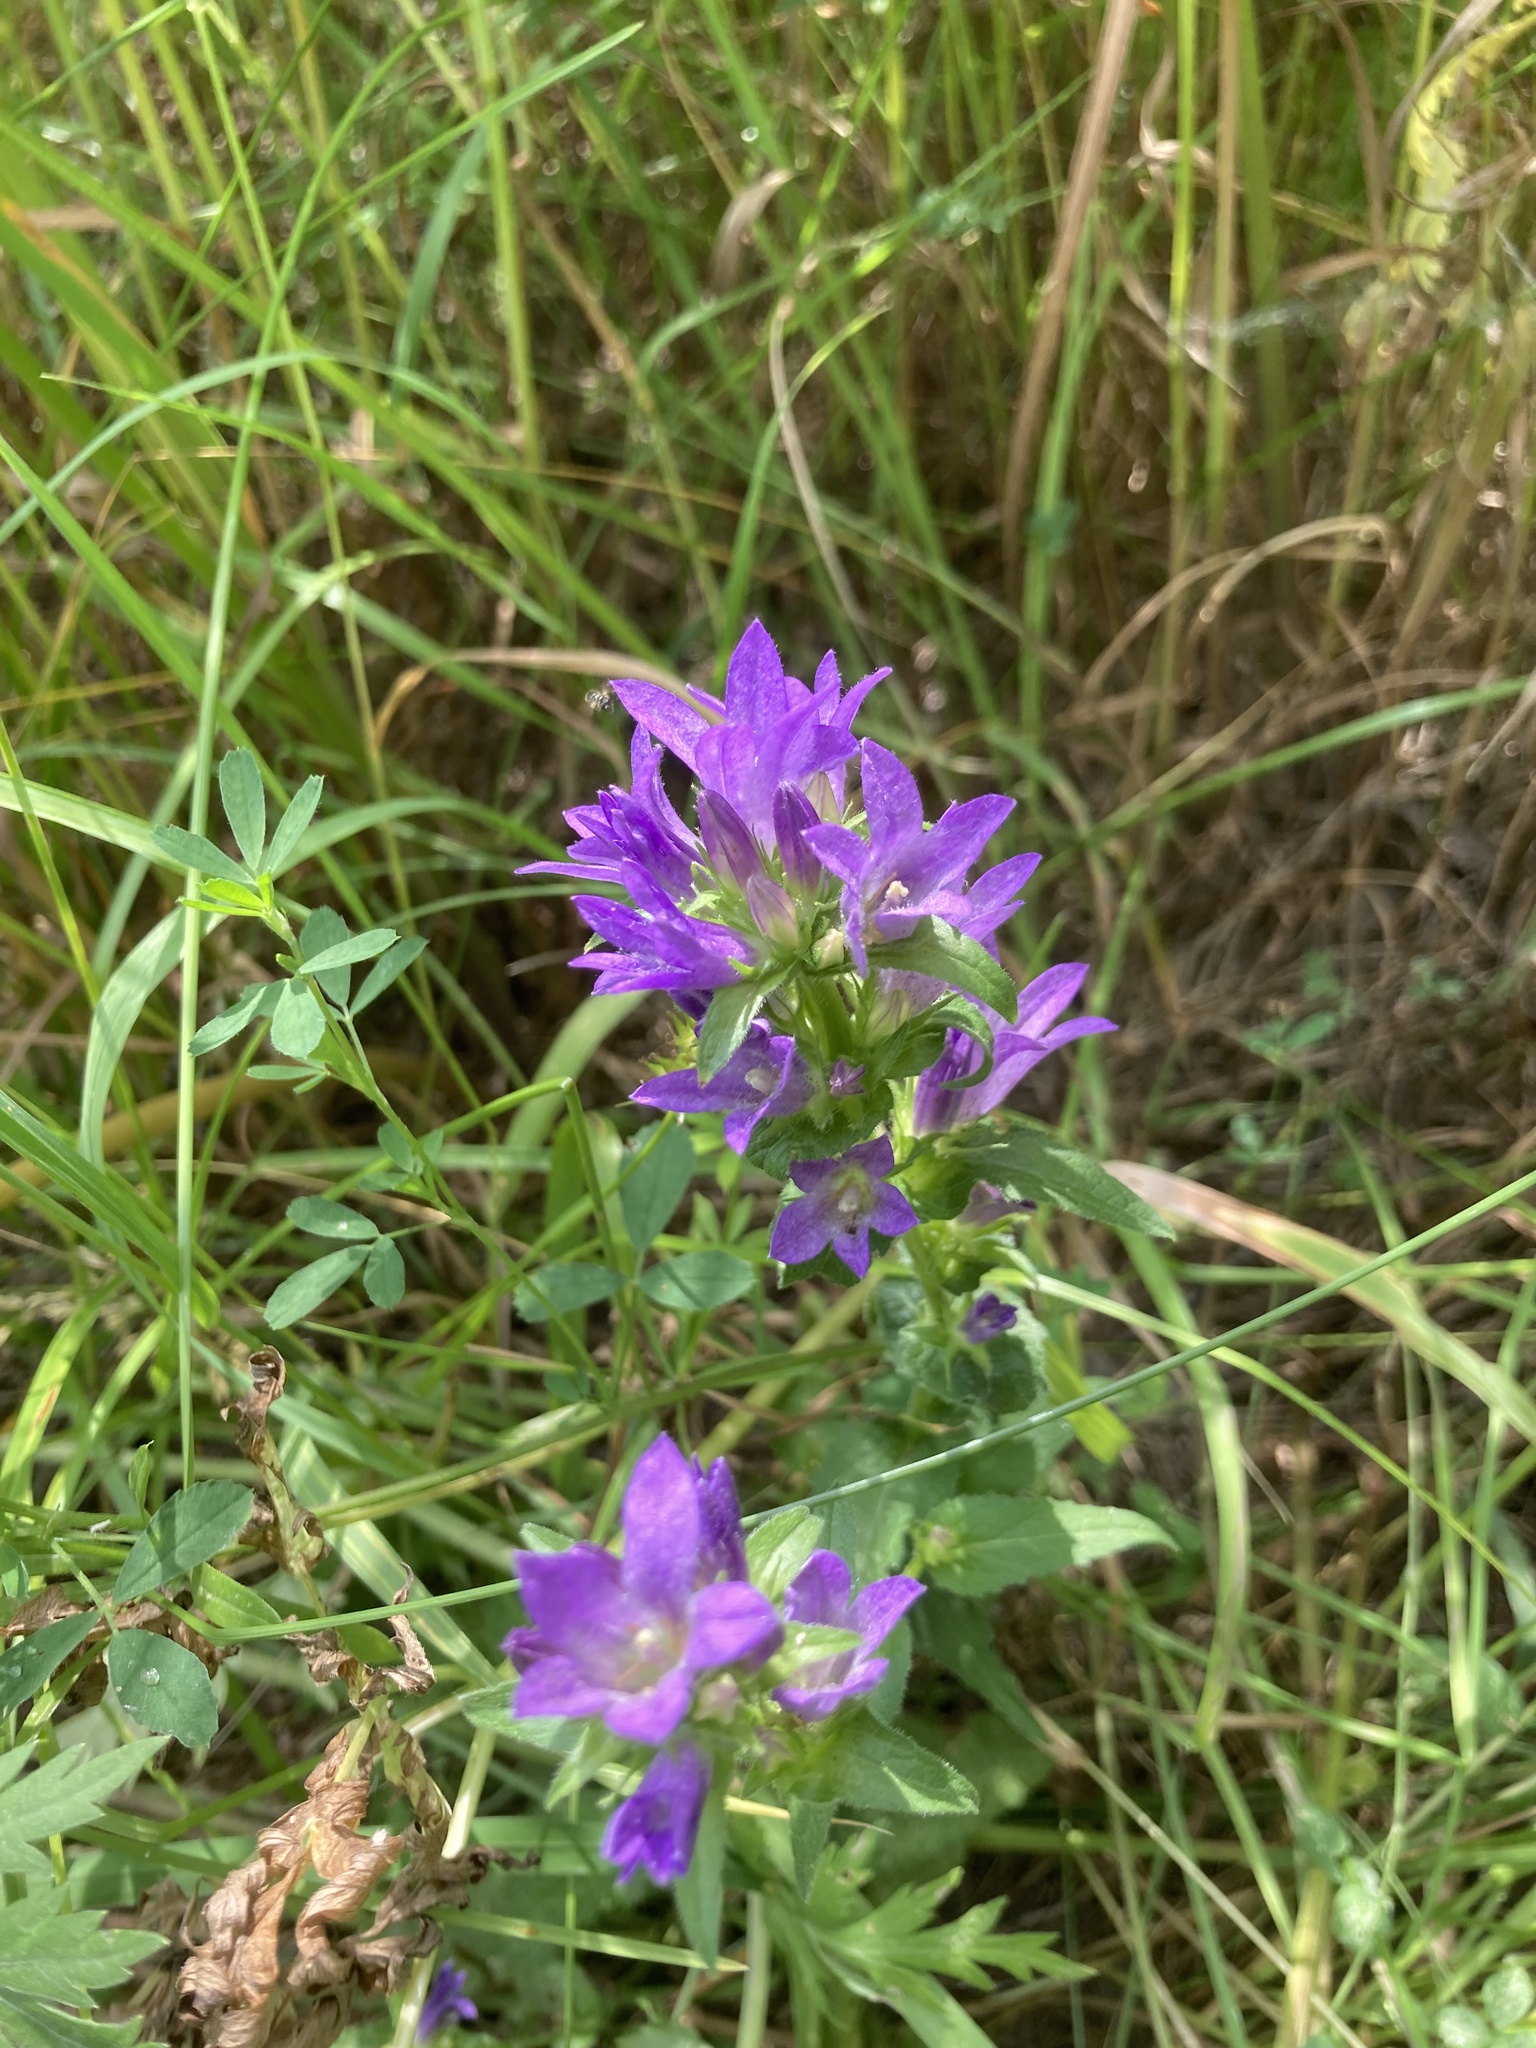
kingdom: Plantae
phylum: Tracheophyta
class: Magnoliopsida
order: Asterales
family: Campanulaceae
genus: Campanula
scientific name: Campanula glomerata
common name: Clustered bellflower
